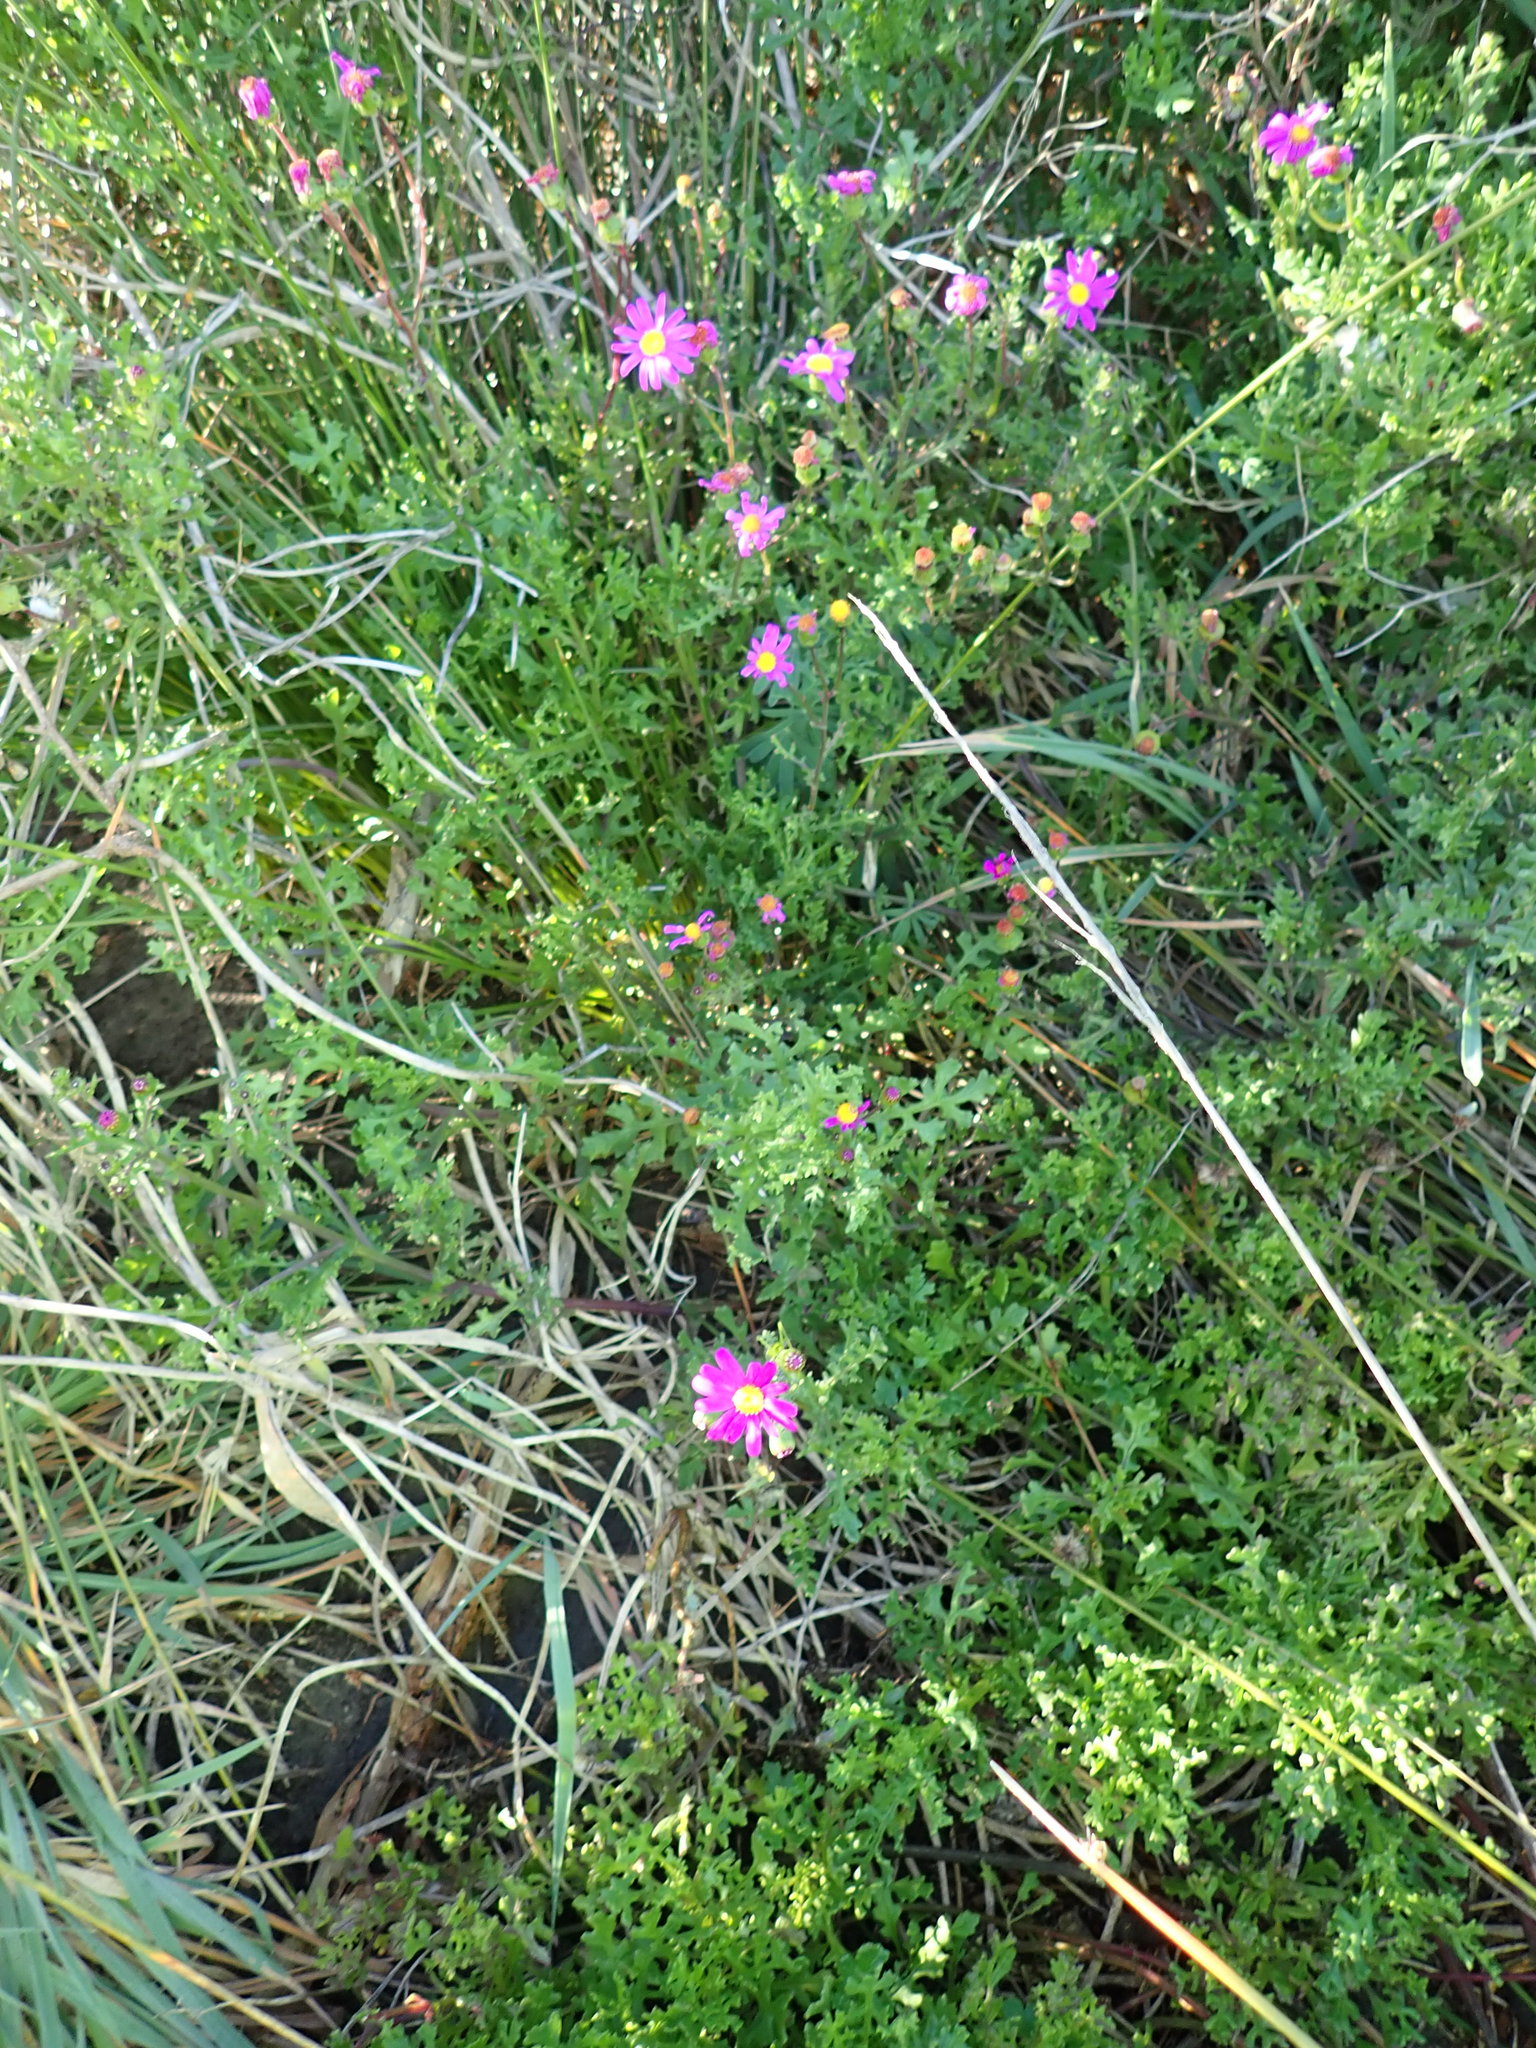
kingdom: Plantae
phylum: Tracheophyta
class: Magnoliopsida
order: Asterales
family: Asteraceae
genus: Senecio
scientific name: Senecio elegans
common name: Purple groundsel
